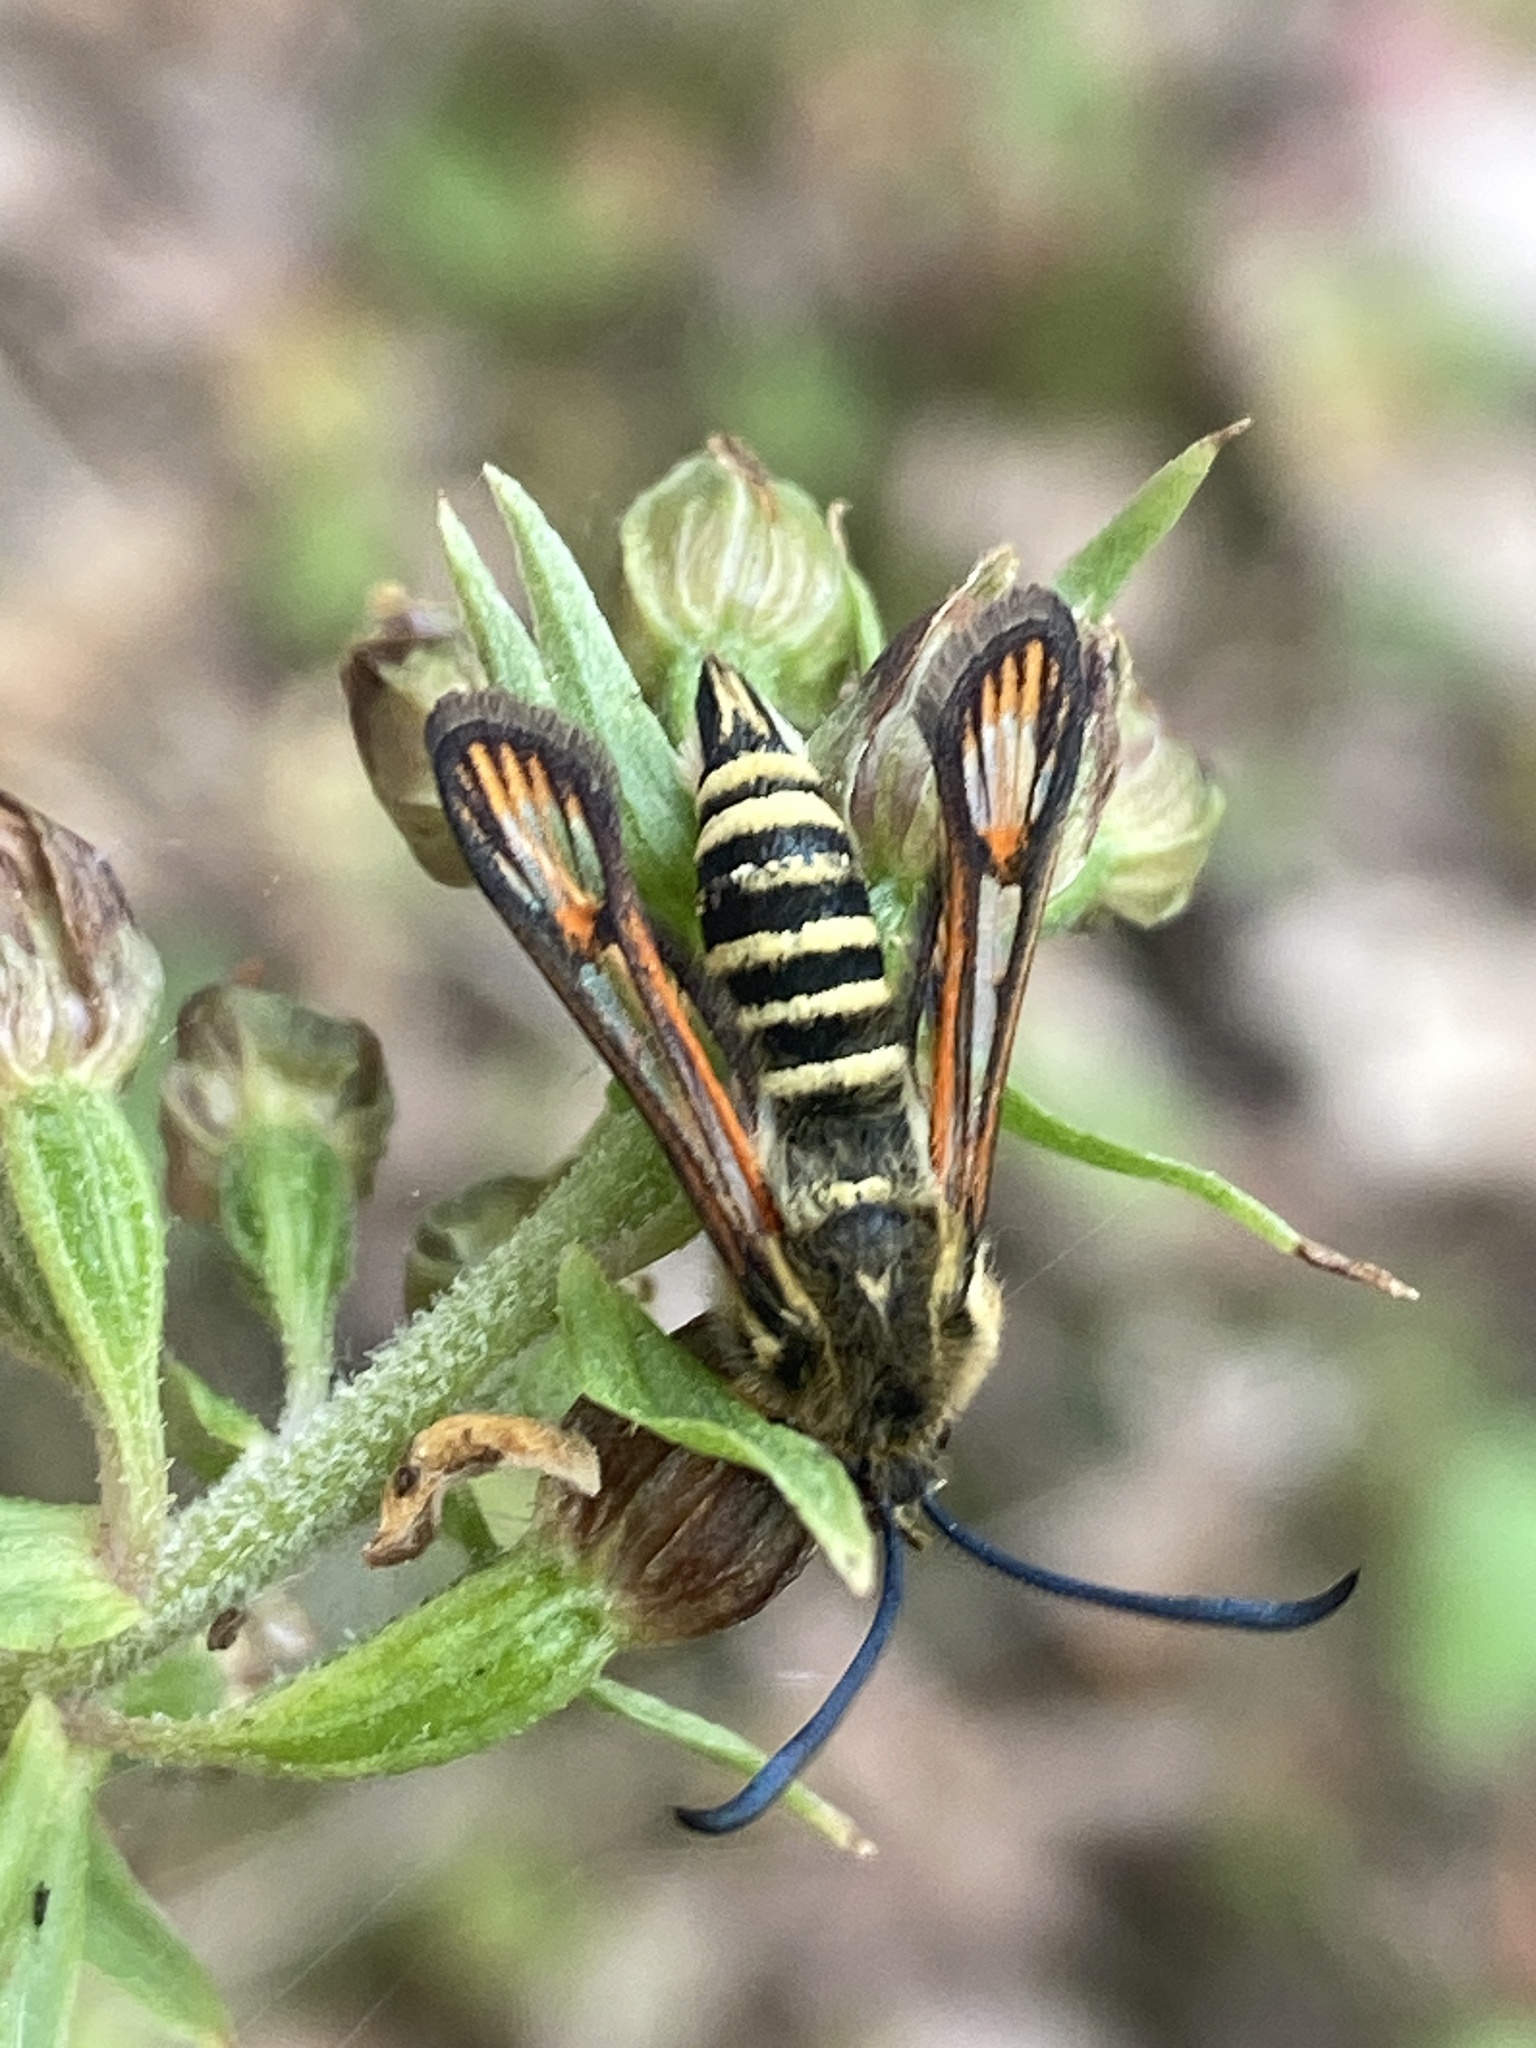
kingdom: Animalia
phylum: Arthropoda
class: Insecta
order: Lepidoptera
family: Sesiidae
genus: Bembecia
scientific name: Bembecia ichneumoniformis
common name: Six-belted clearwing
